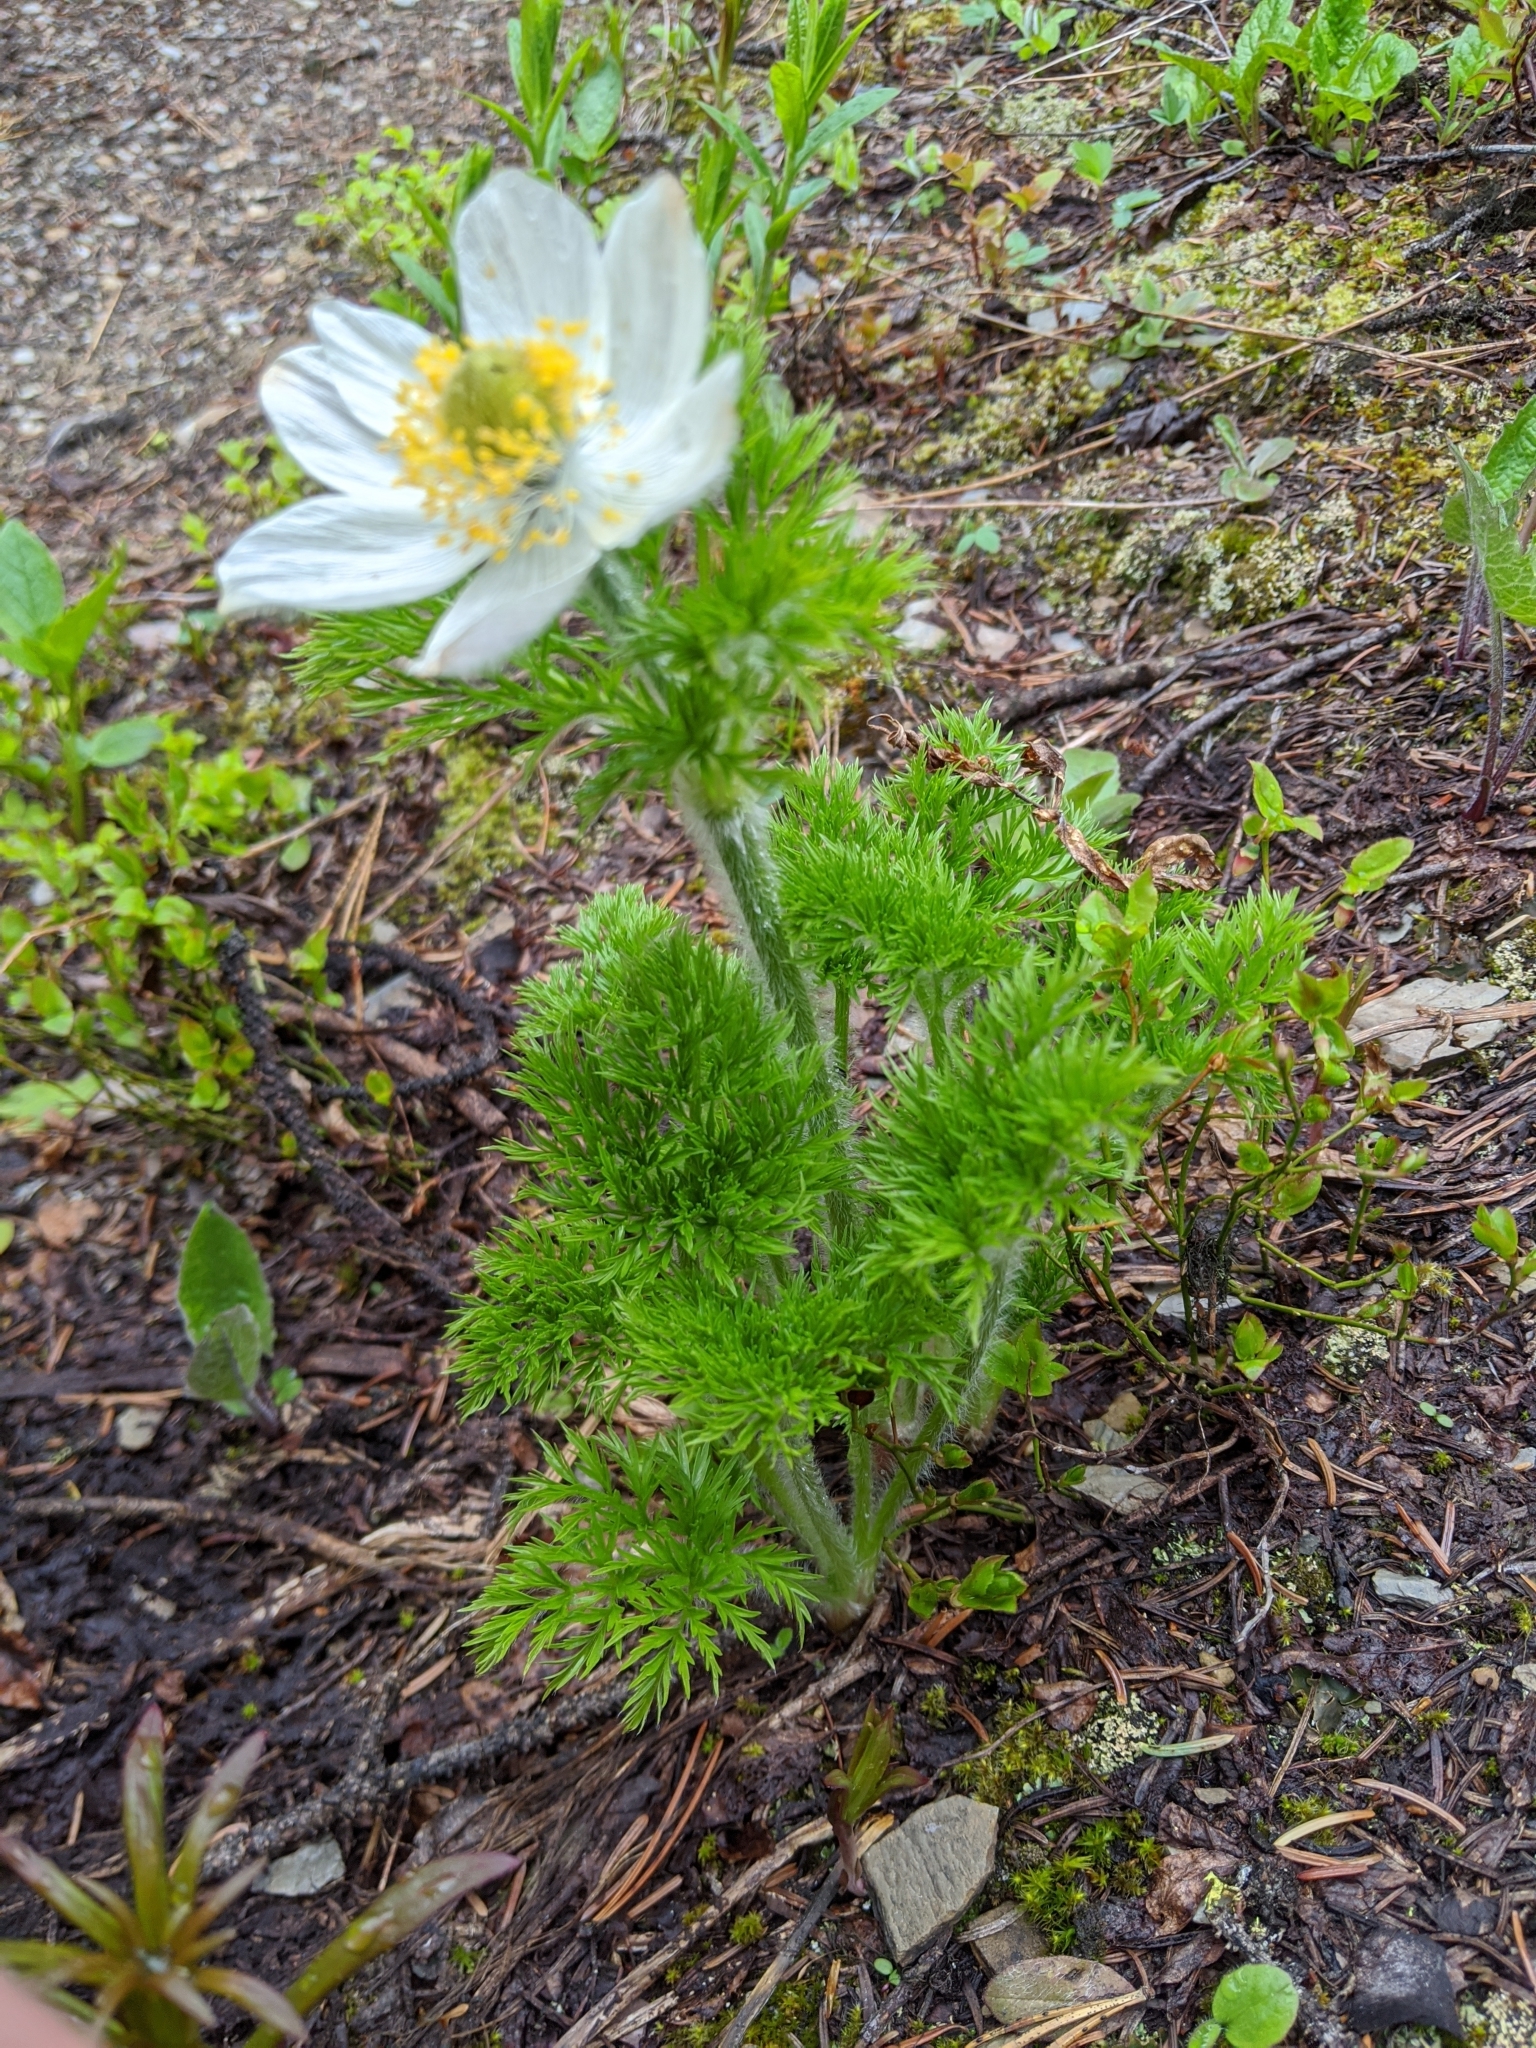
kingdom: Plantae
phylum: Tracheophyta
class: Magnoliopsida
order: Ranunculales
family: Ranunculaceae
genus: Pulsatilla
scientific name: Pulsatilla occidentalis
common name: Mountain pasqueflower
